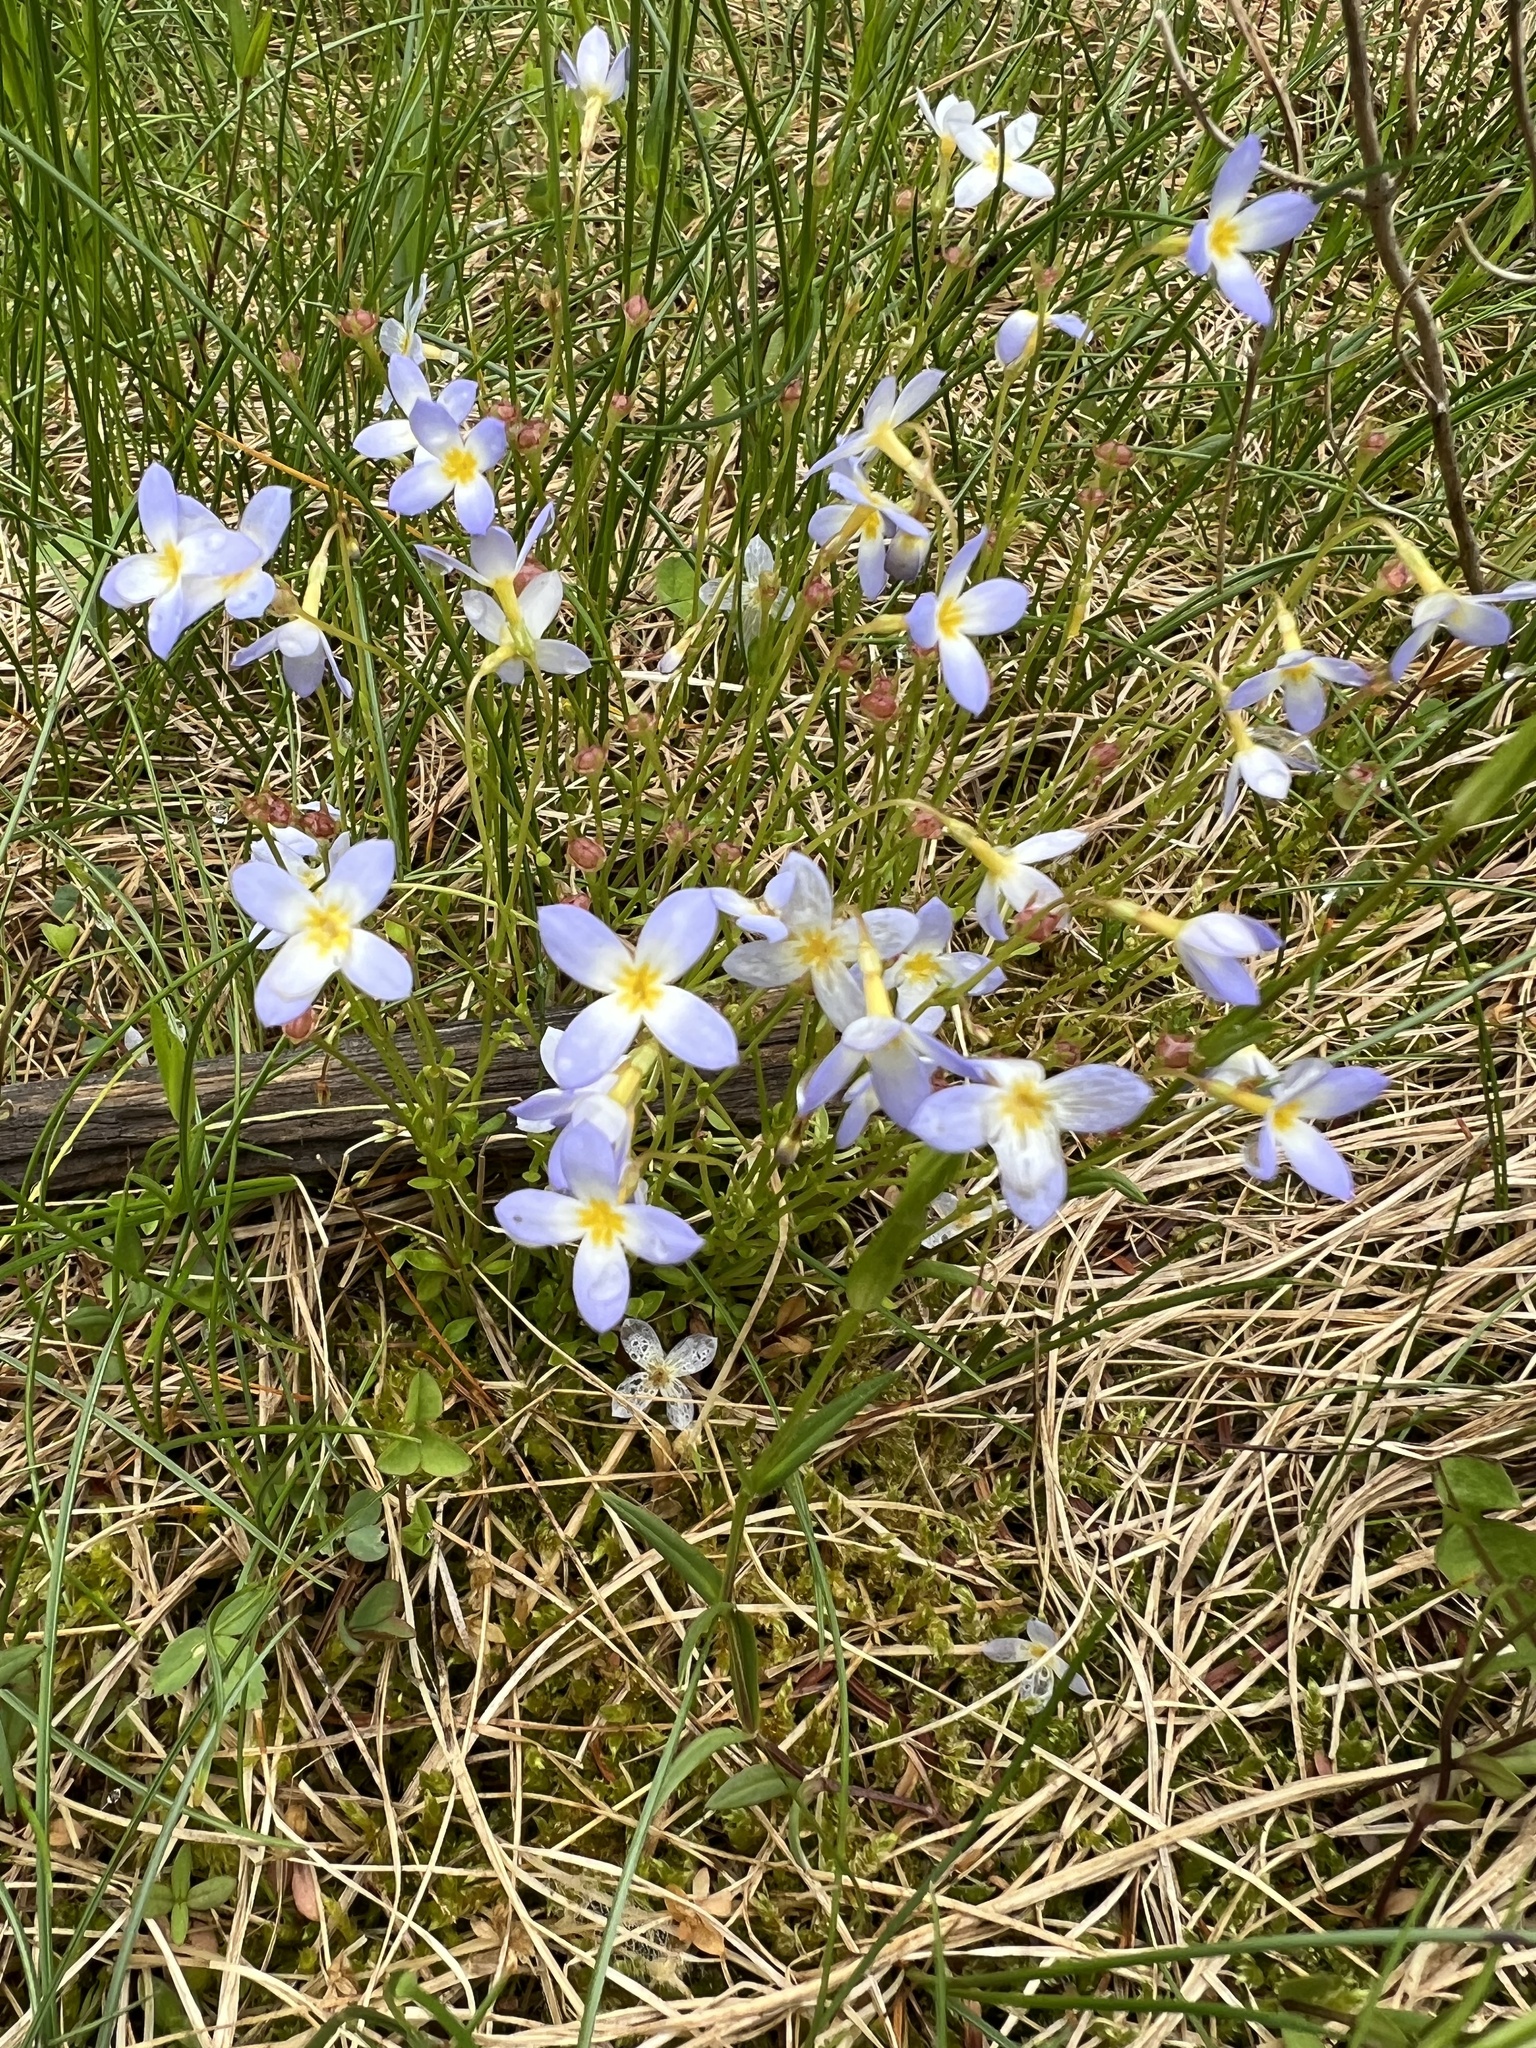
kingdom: Plantae
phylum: Tracheophyta
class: Magnoliopsida
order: Gentianales
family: Rubiaceae
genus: Houstonia
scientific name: Houstonia caerulea
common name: Bluets
